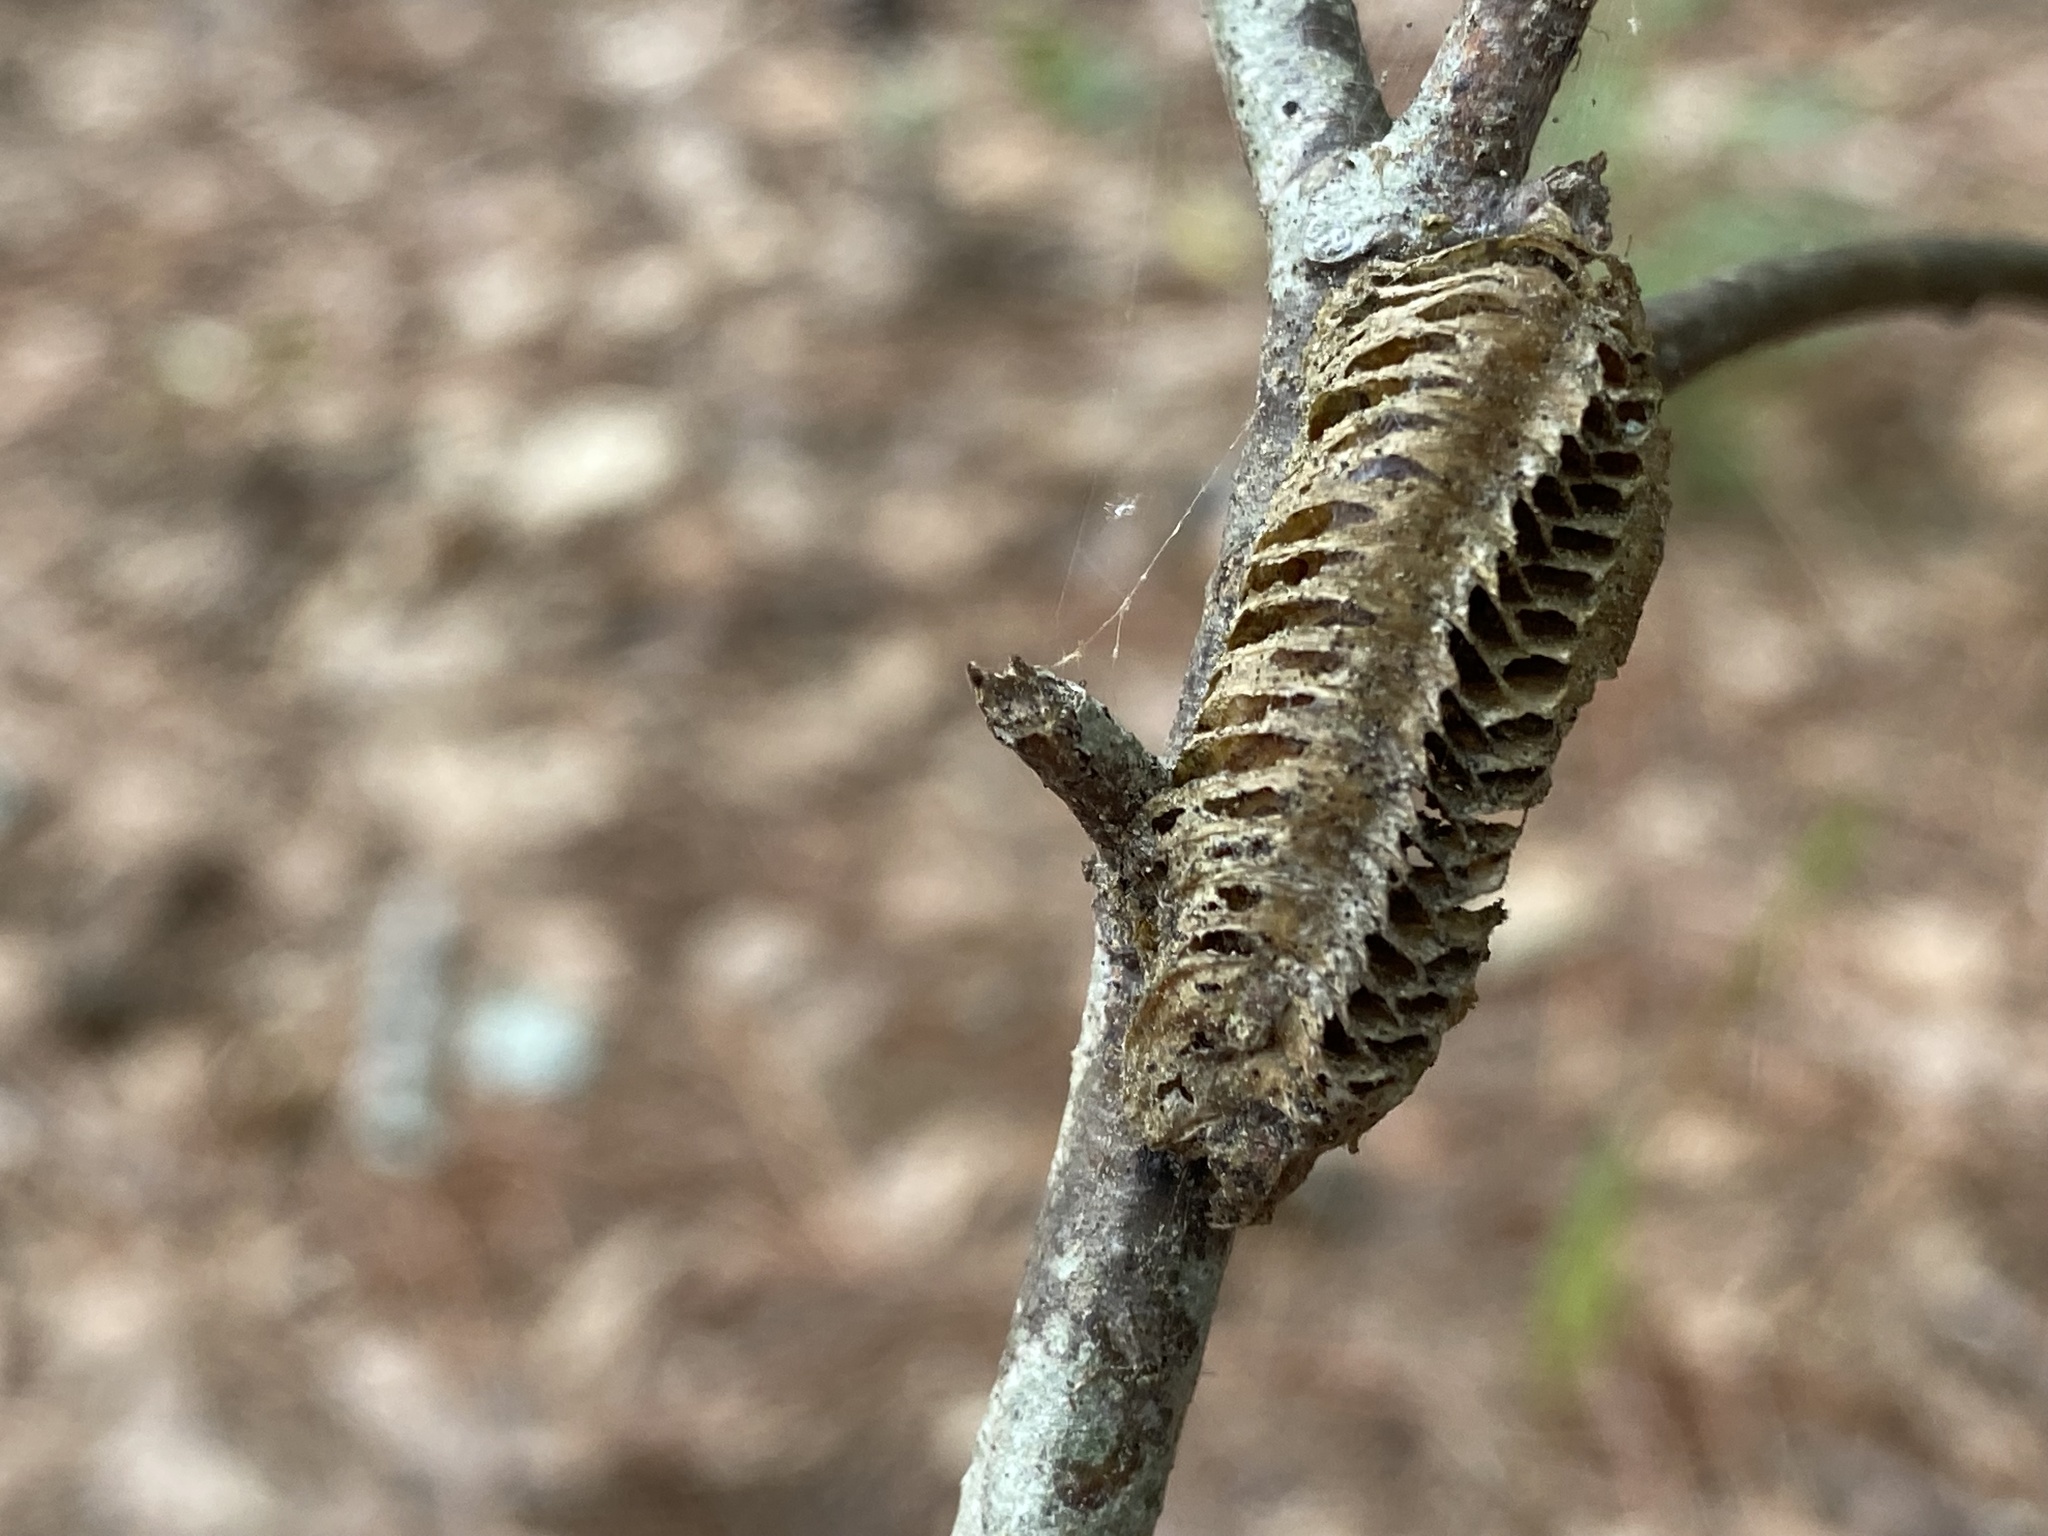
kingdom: Animalia
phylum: Arthropoda
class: Insecta
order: Mantodea
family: Mantidae
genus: Stagmomantis
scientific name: Stagmomantis carolina
